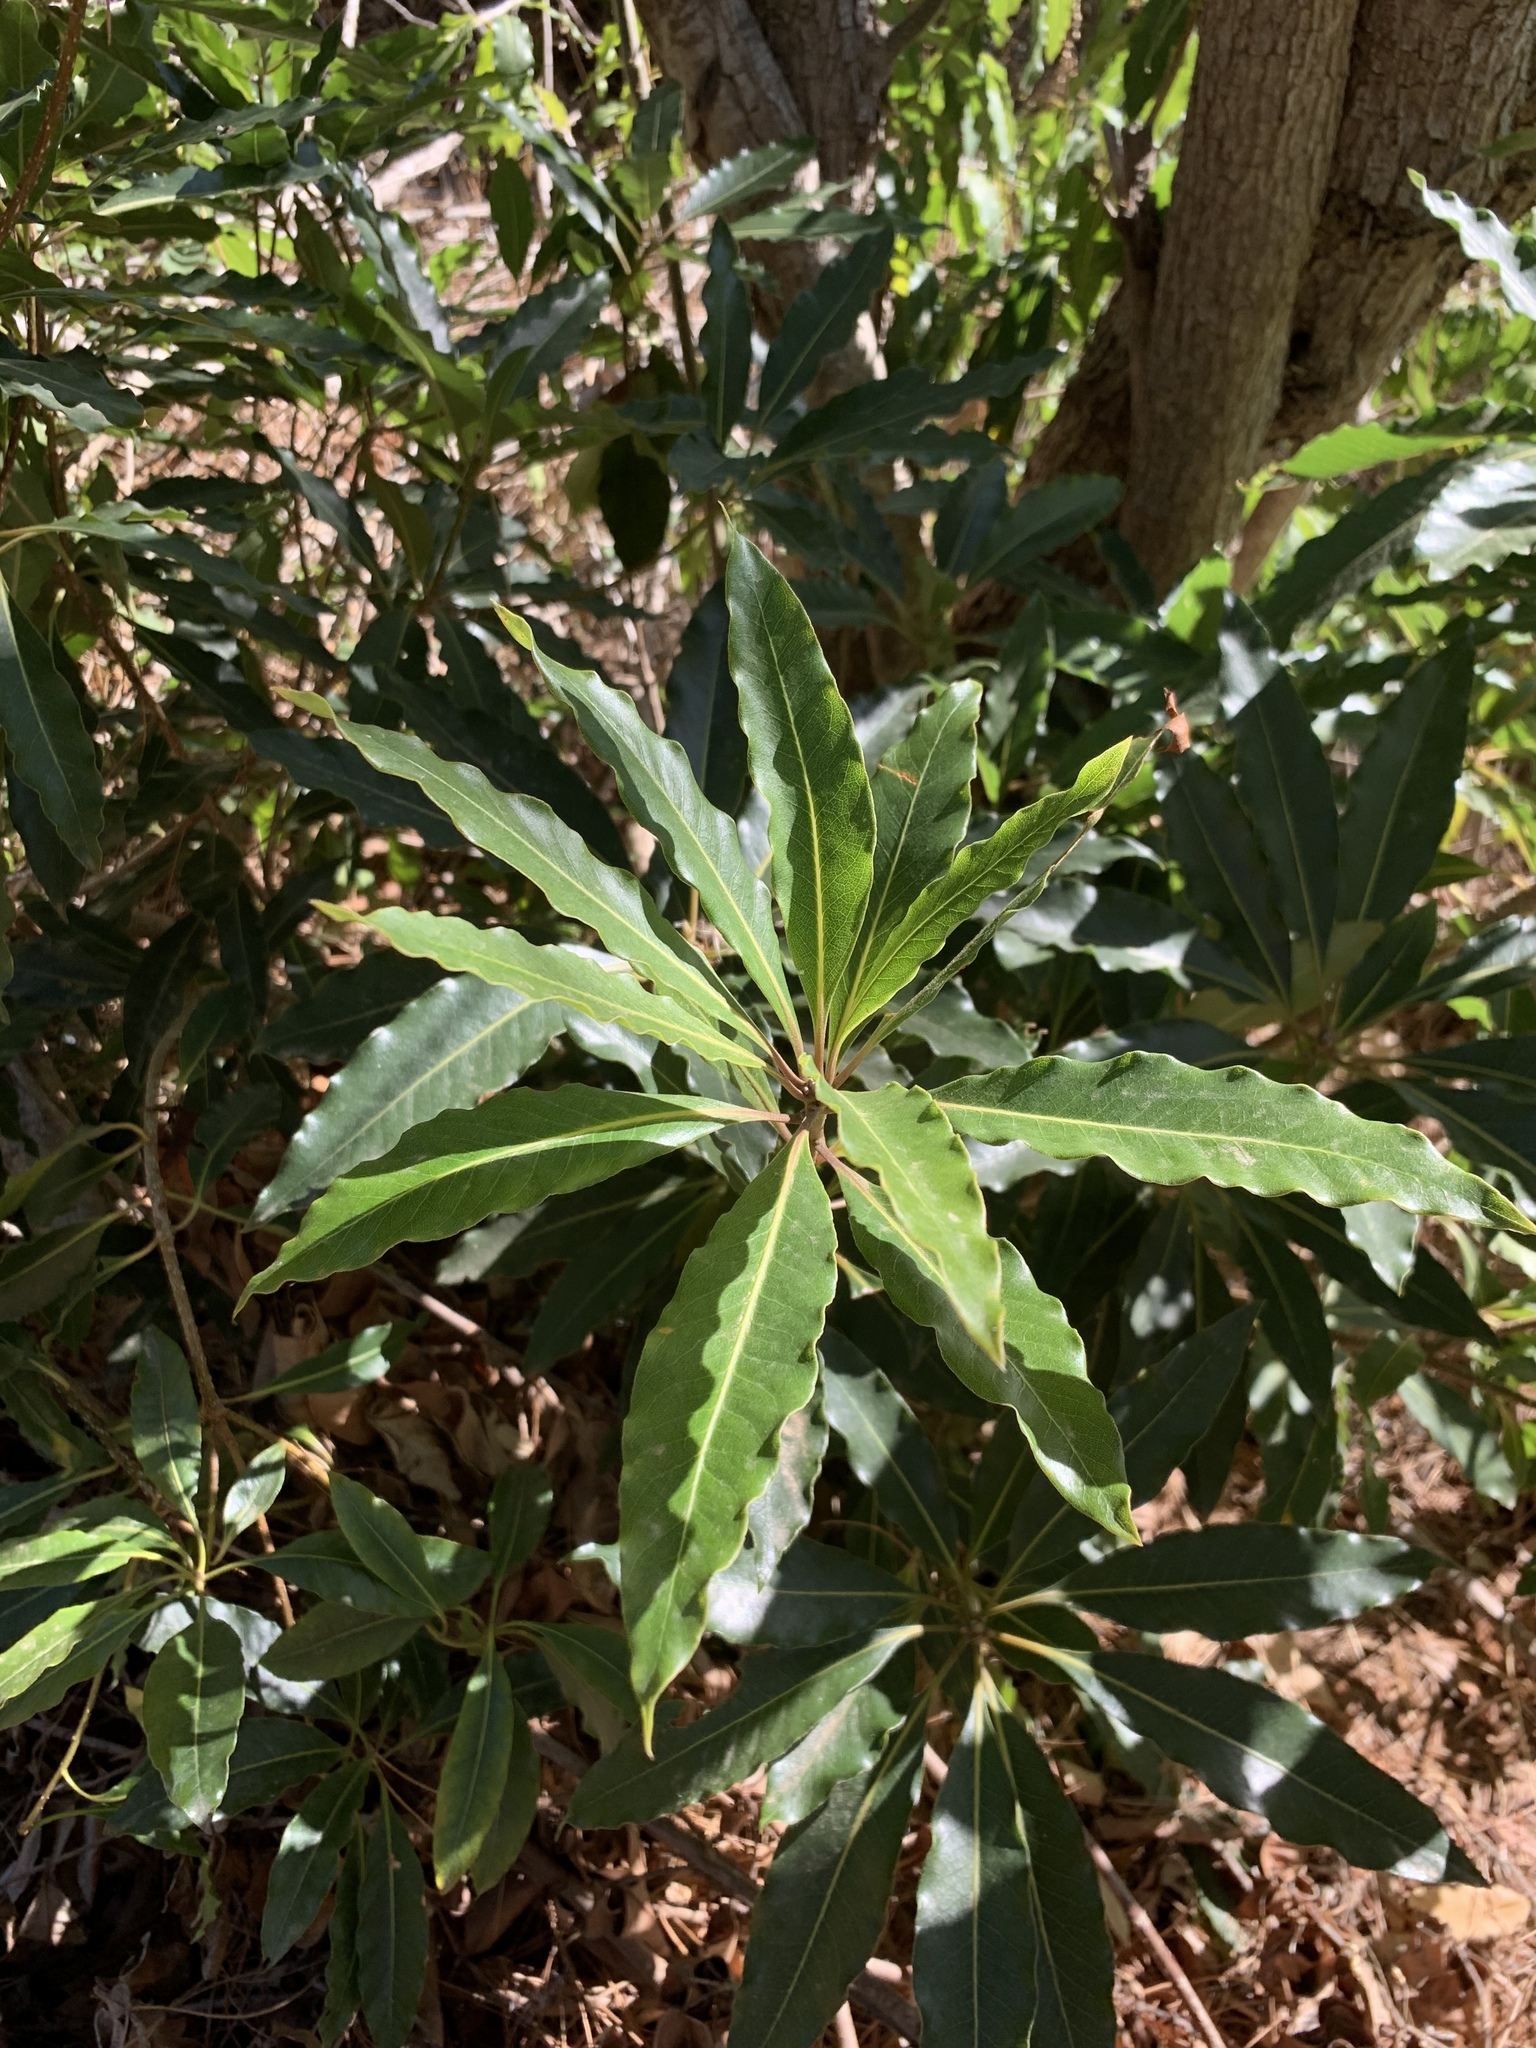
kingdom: Plantae
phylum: Tracheophyta
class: Magnoliopsida
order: Apiales
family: Pittosporaceae
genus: Pittosporum
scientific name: Pittosporum undulatum
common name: Australian cheesewood
